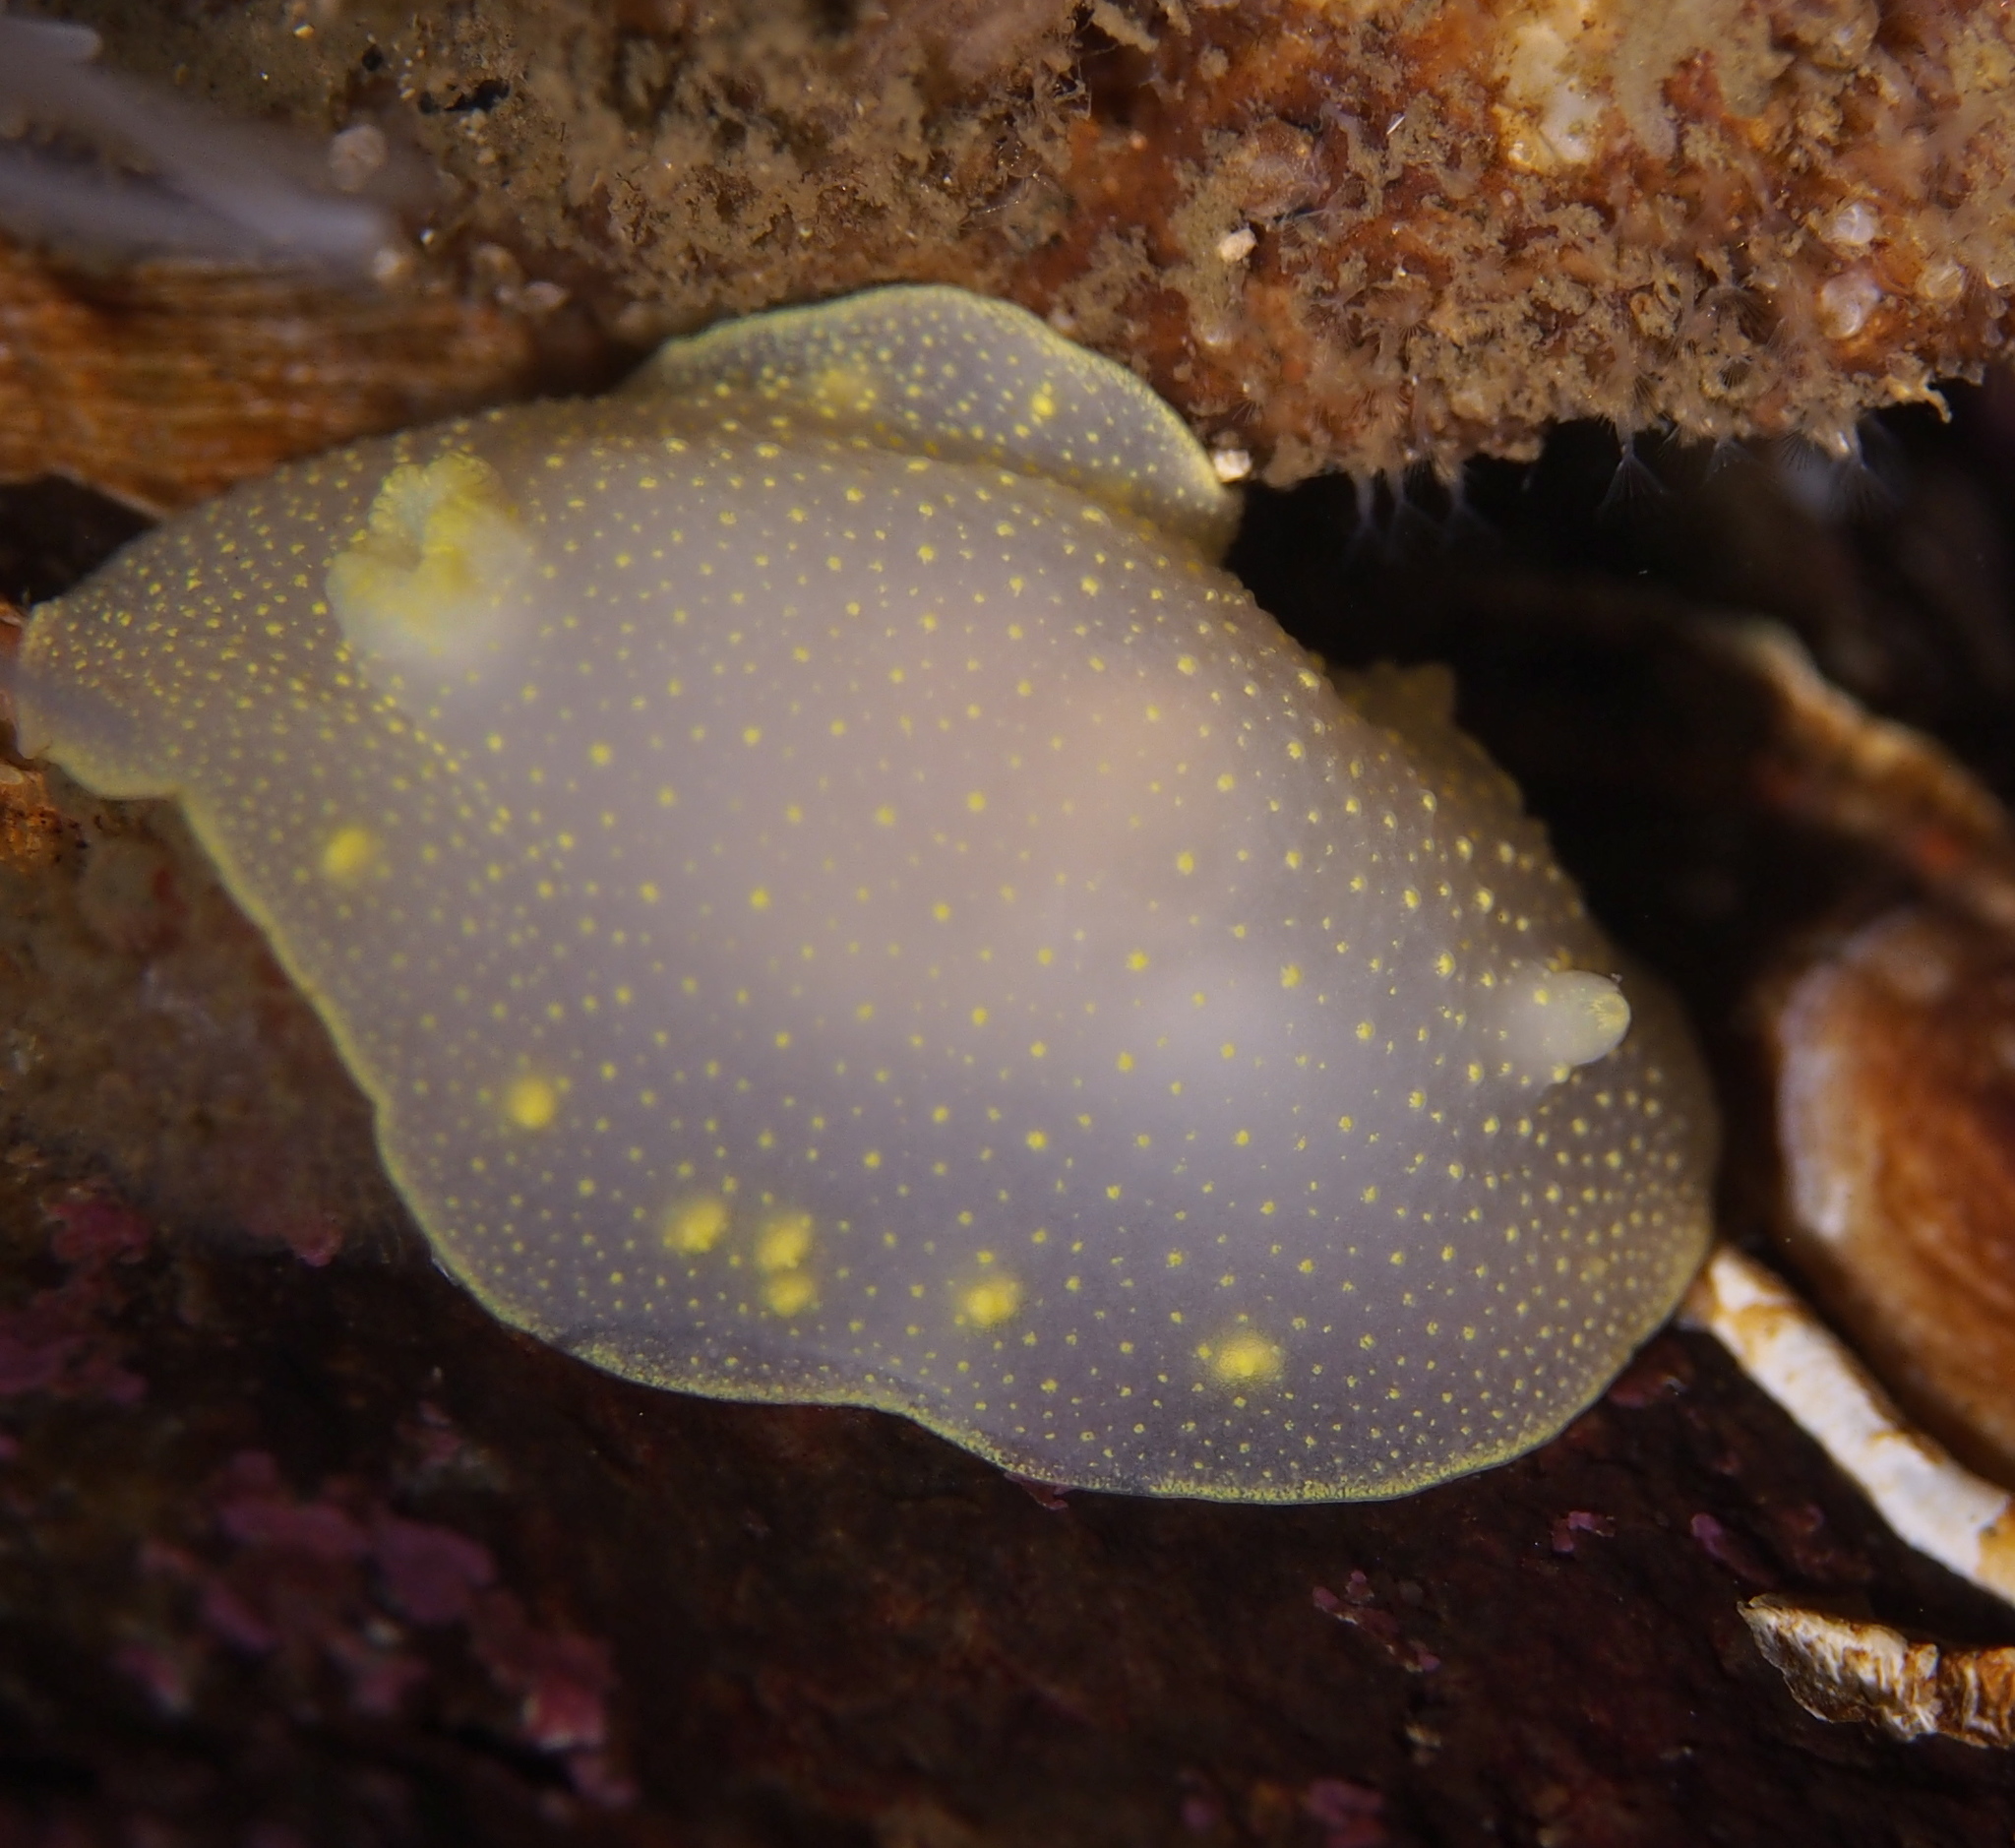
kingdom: Animalia
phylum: Mollusca
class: Gastropoda
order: Nudibranchia
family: Cadlinidae
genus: Cadlina
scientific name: Cadlina laevis
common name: White atlantic cadlina
